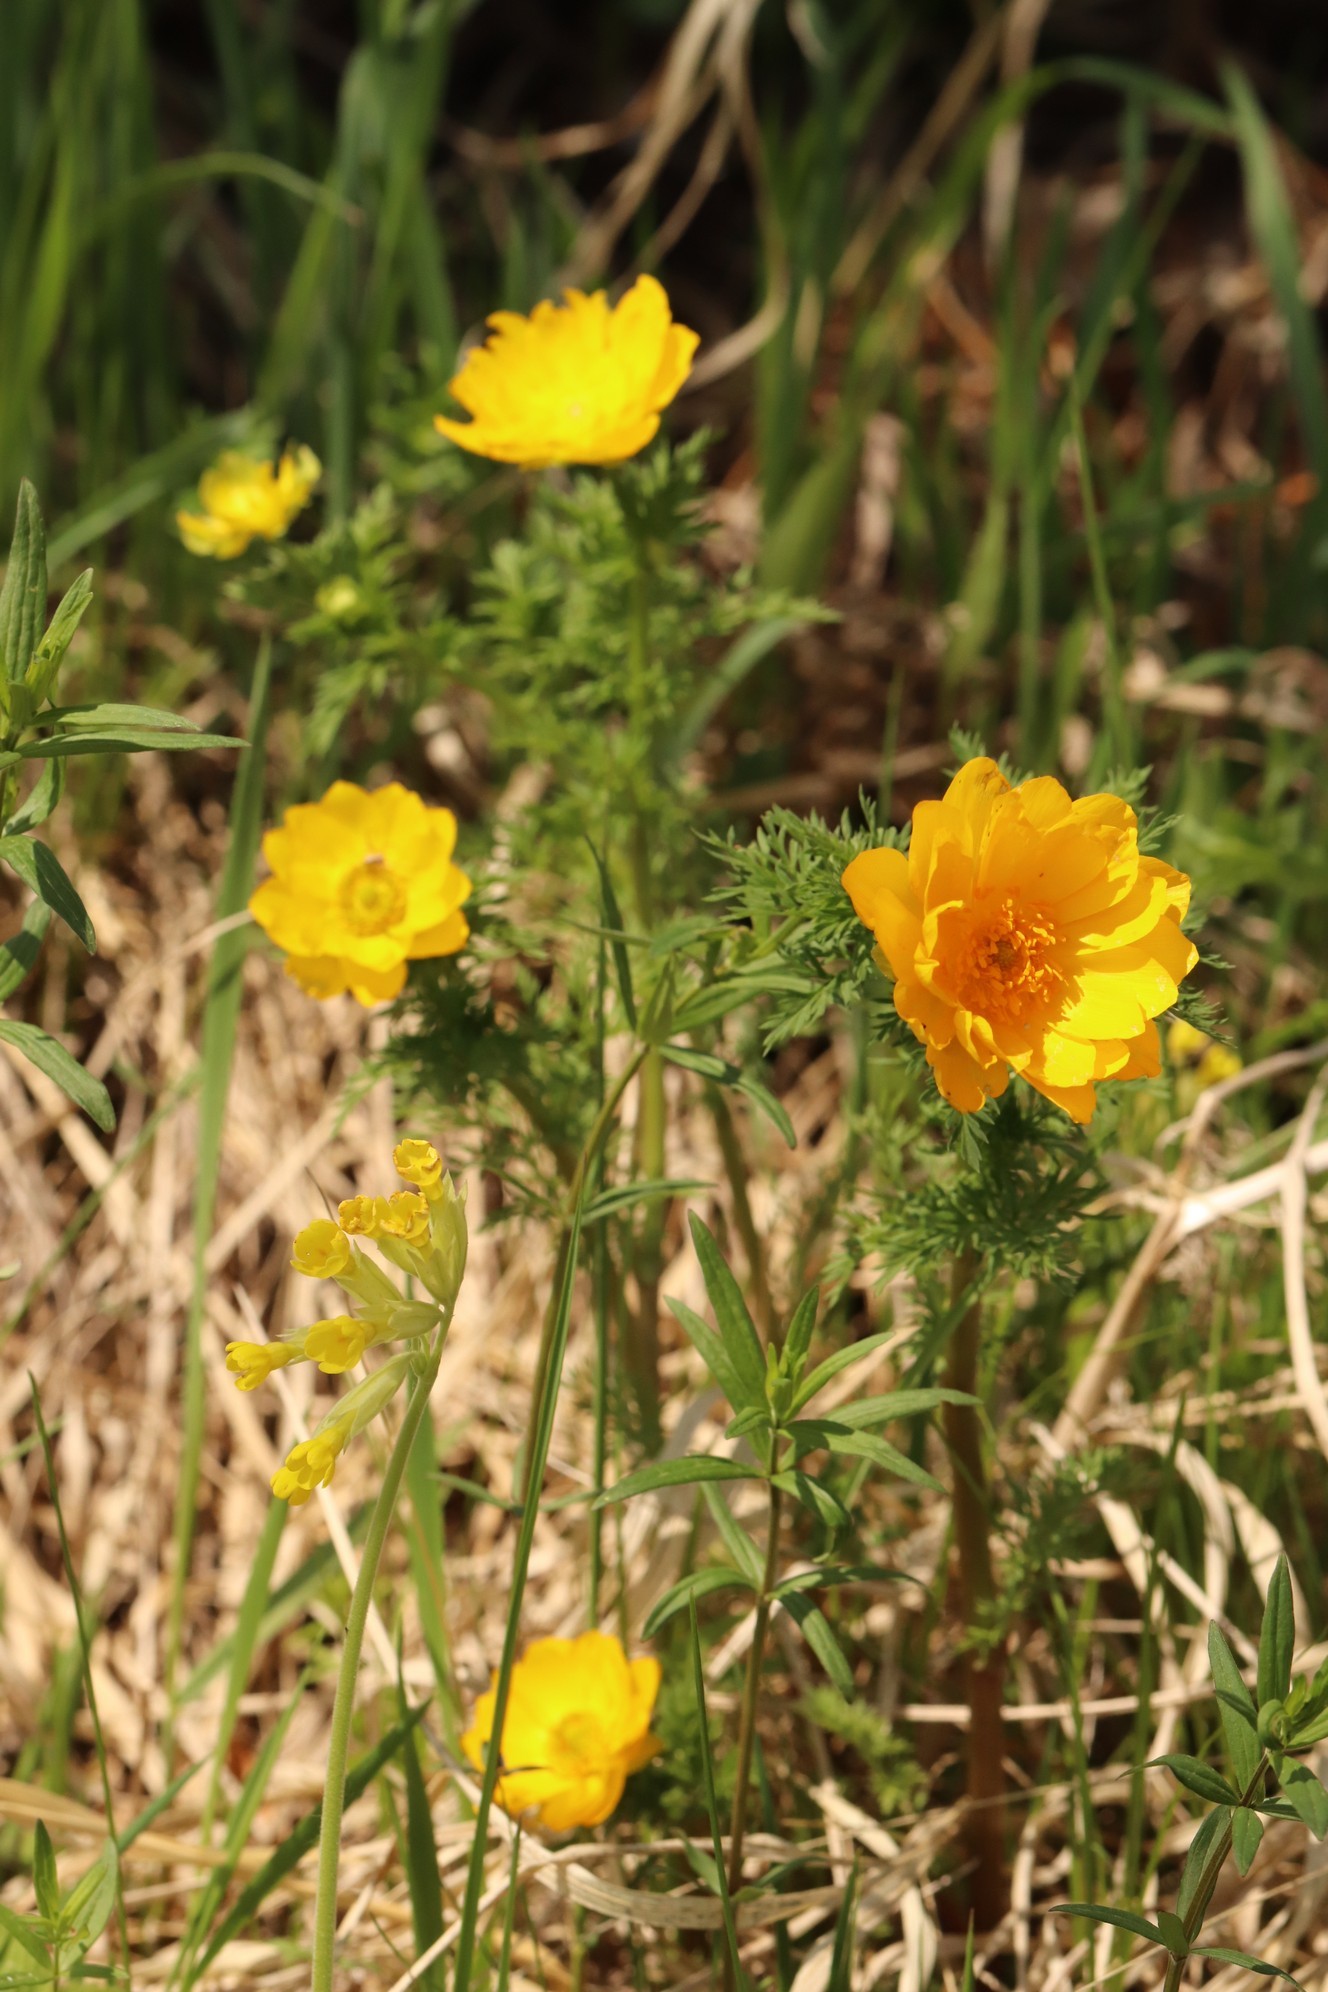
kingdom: Plantae
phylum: Tracheophyta
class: Magnoliopsida
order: Ranunculales
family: Ranunculaceae
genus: Adonis
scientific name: Adonis
